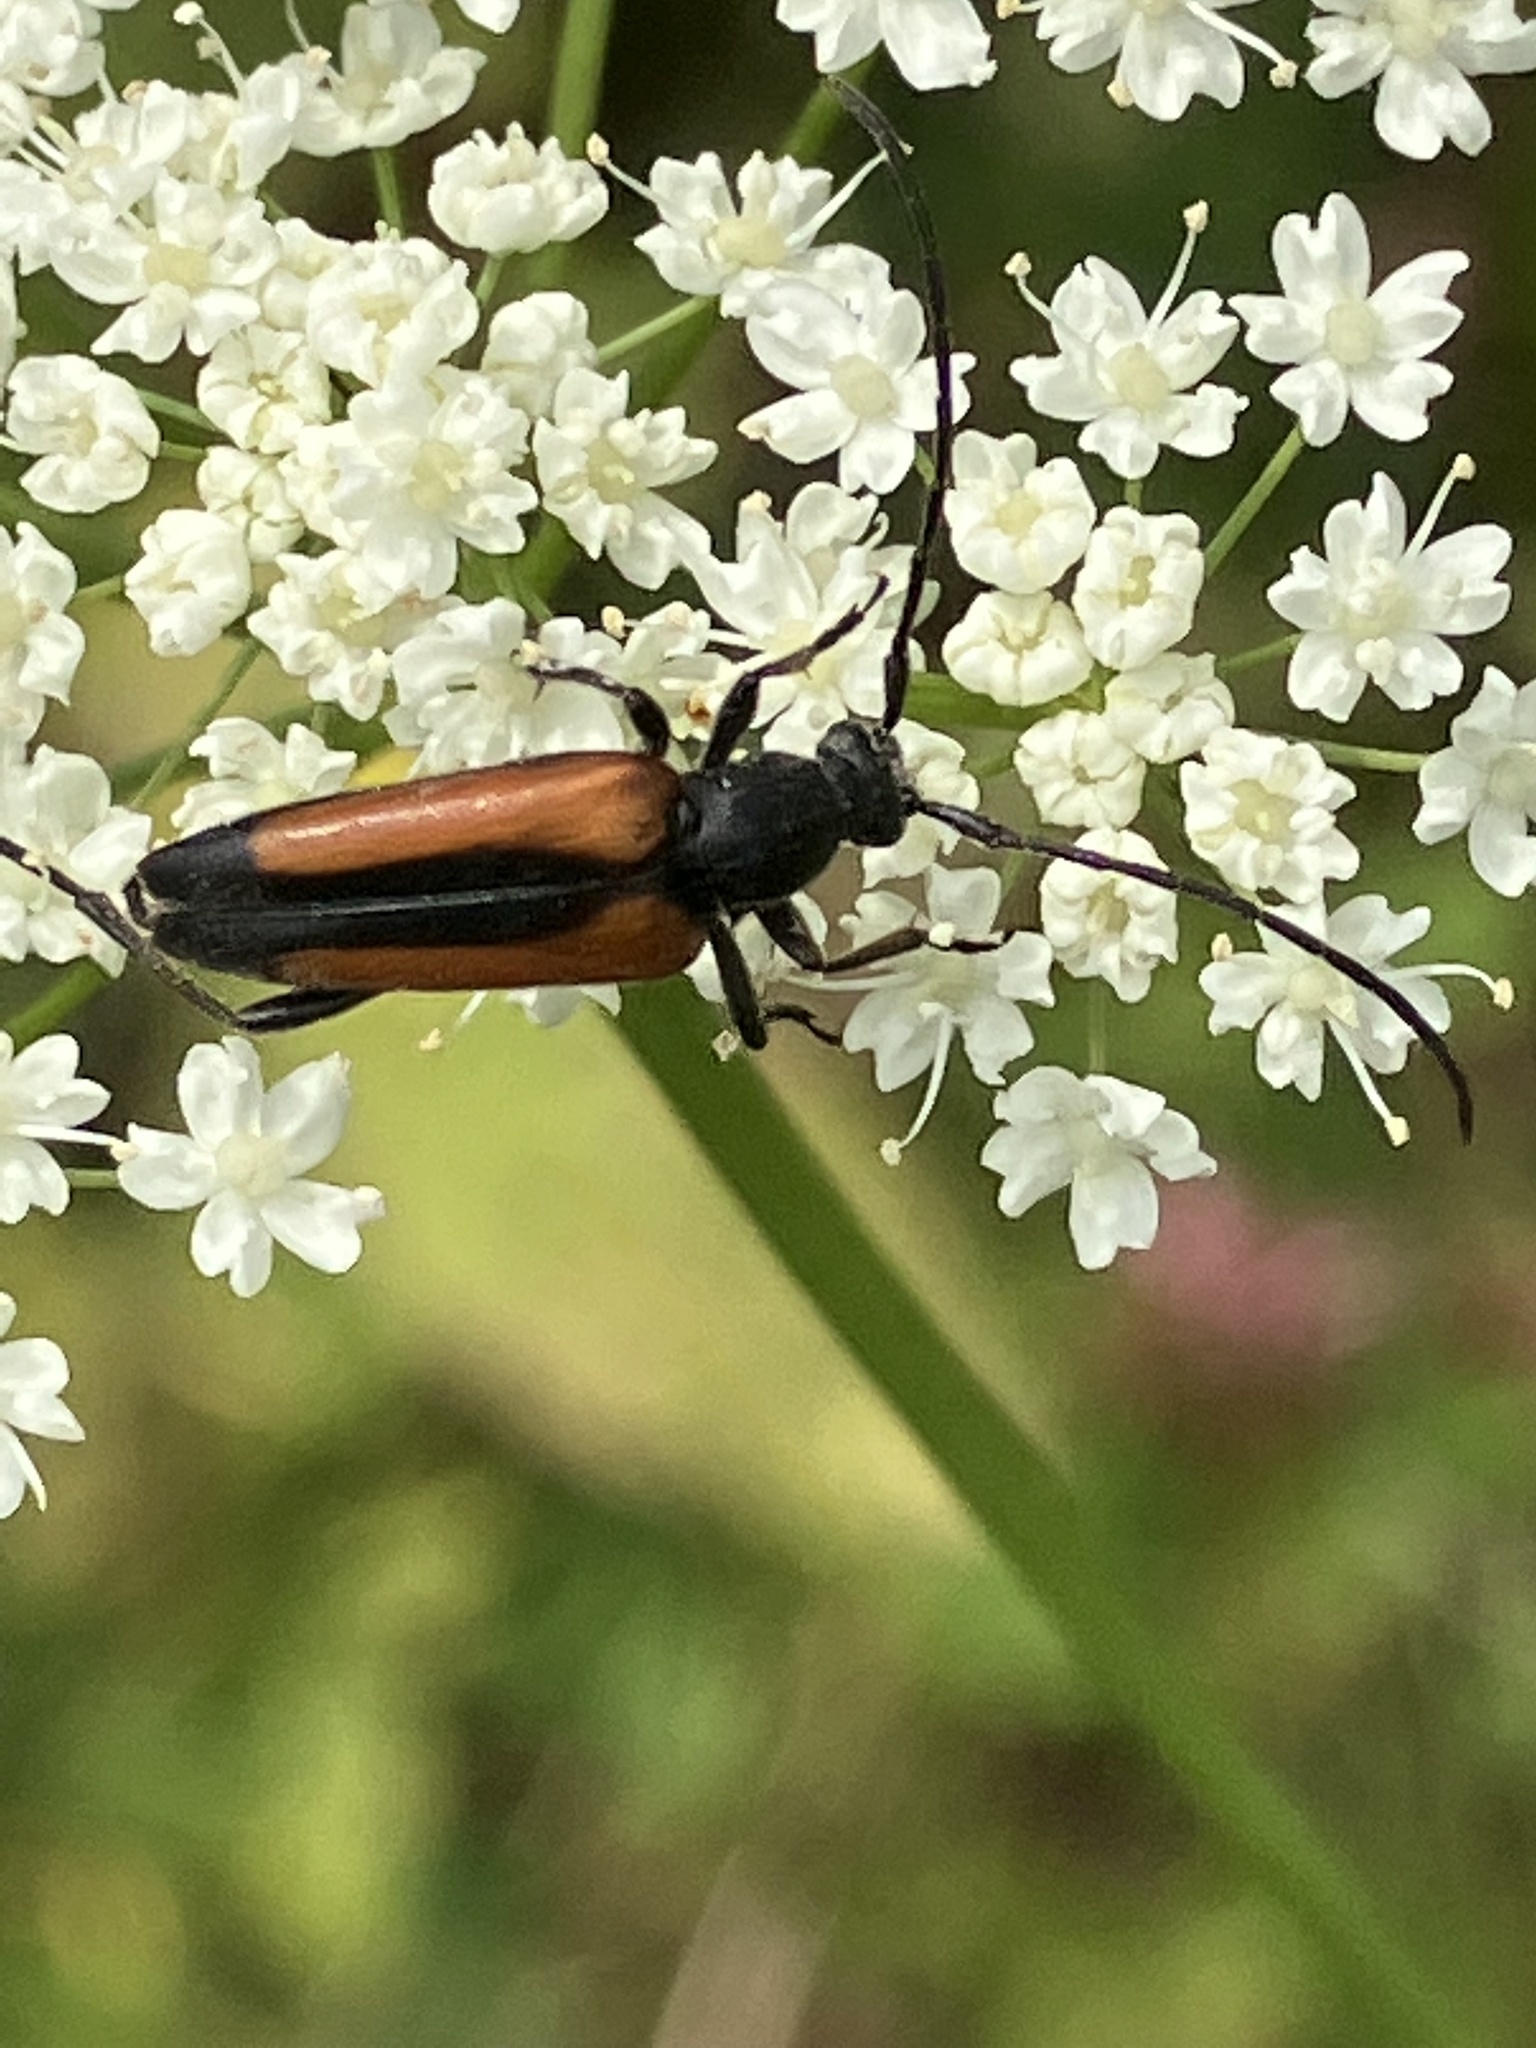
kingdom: Animalia
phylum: Arthropoda
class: Insecta
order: Coleoptera
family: Cerambycidae
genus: Stenurella
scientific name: Stenurella melanura
